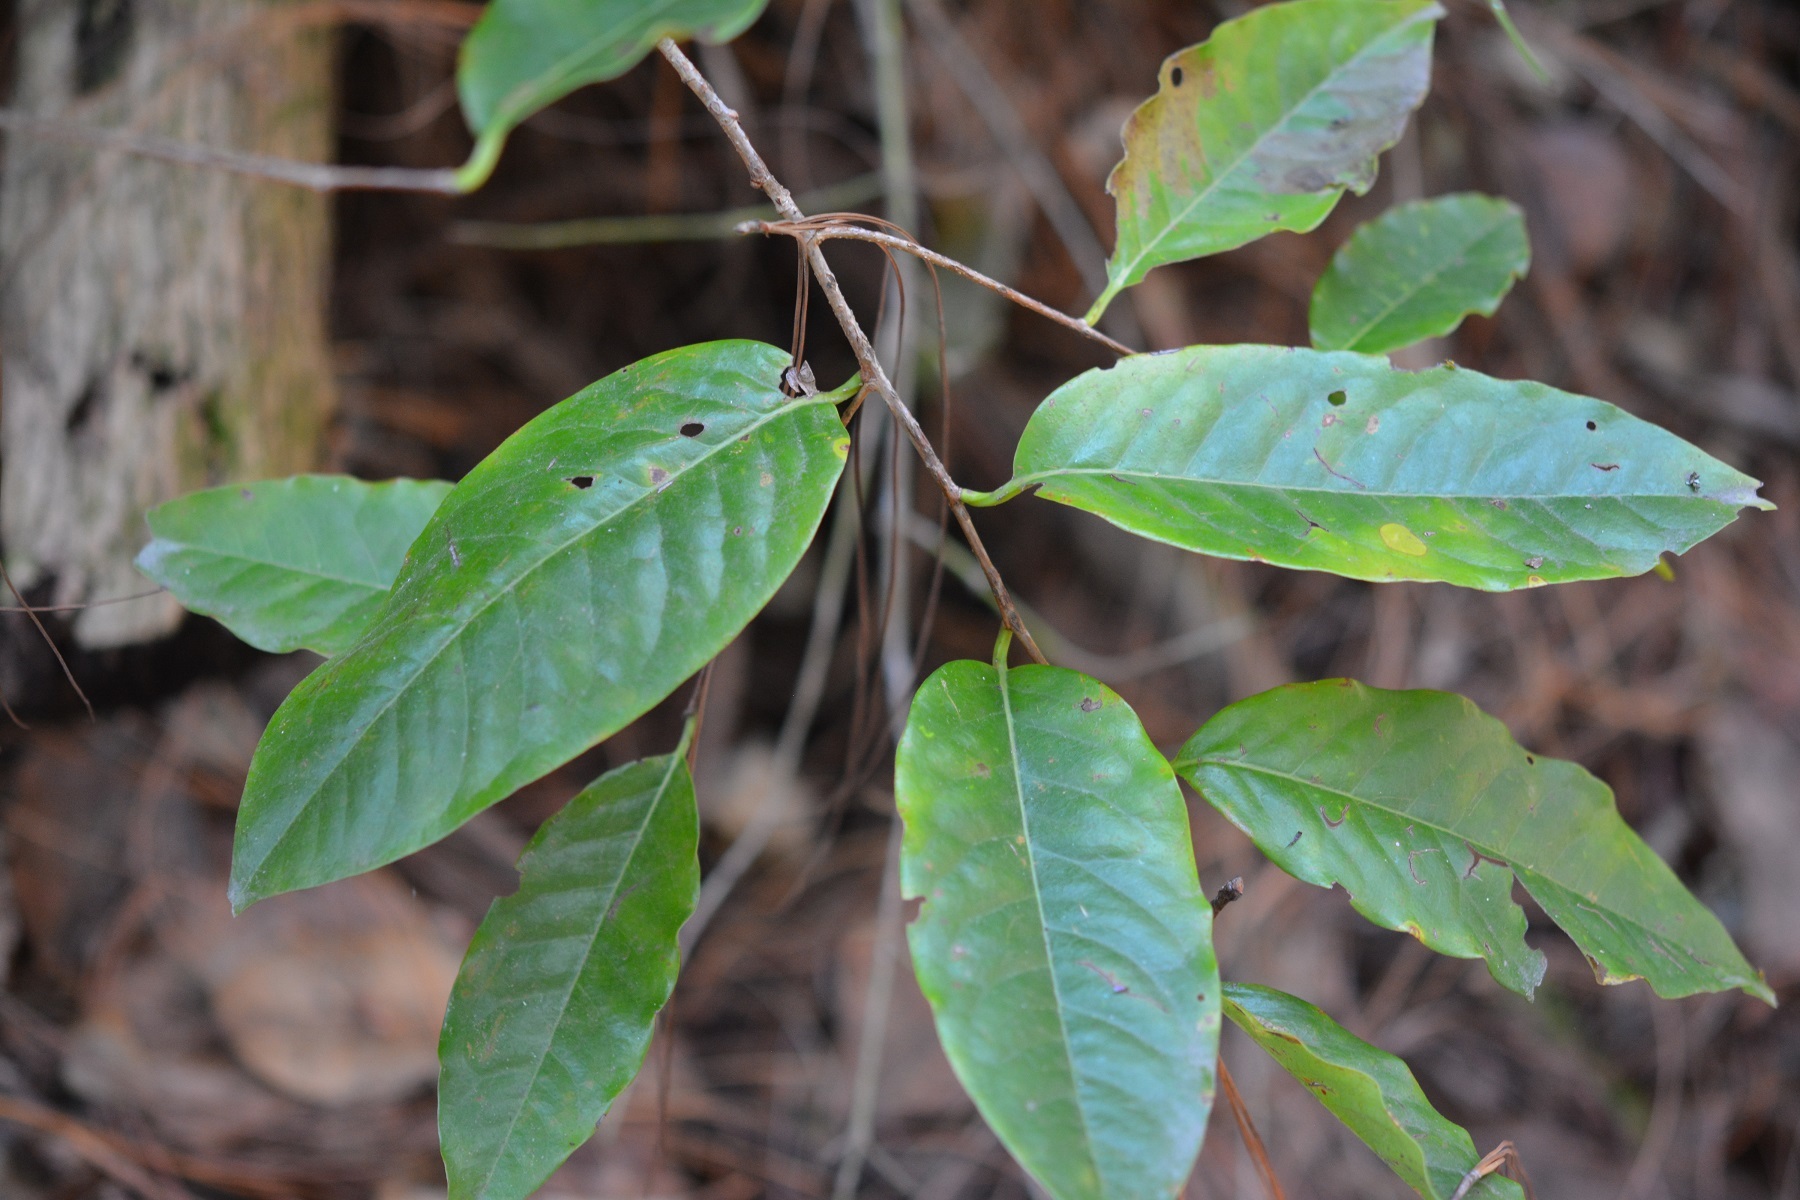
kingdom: Plantae
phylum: Tracheophyta
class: Magnoliopsida
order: Rosales
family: Rosaceae
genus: Prunus
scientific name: Prunus tetradenia
